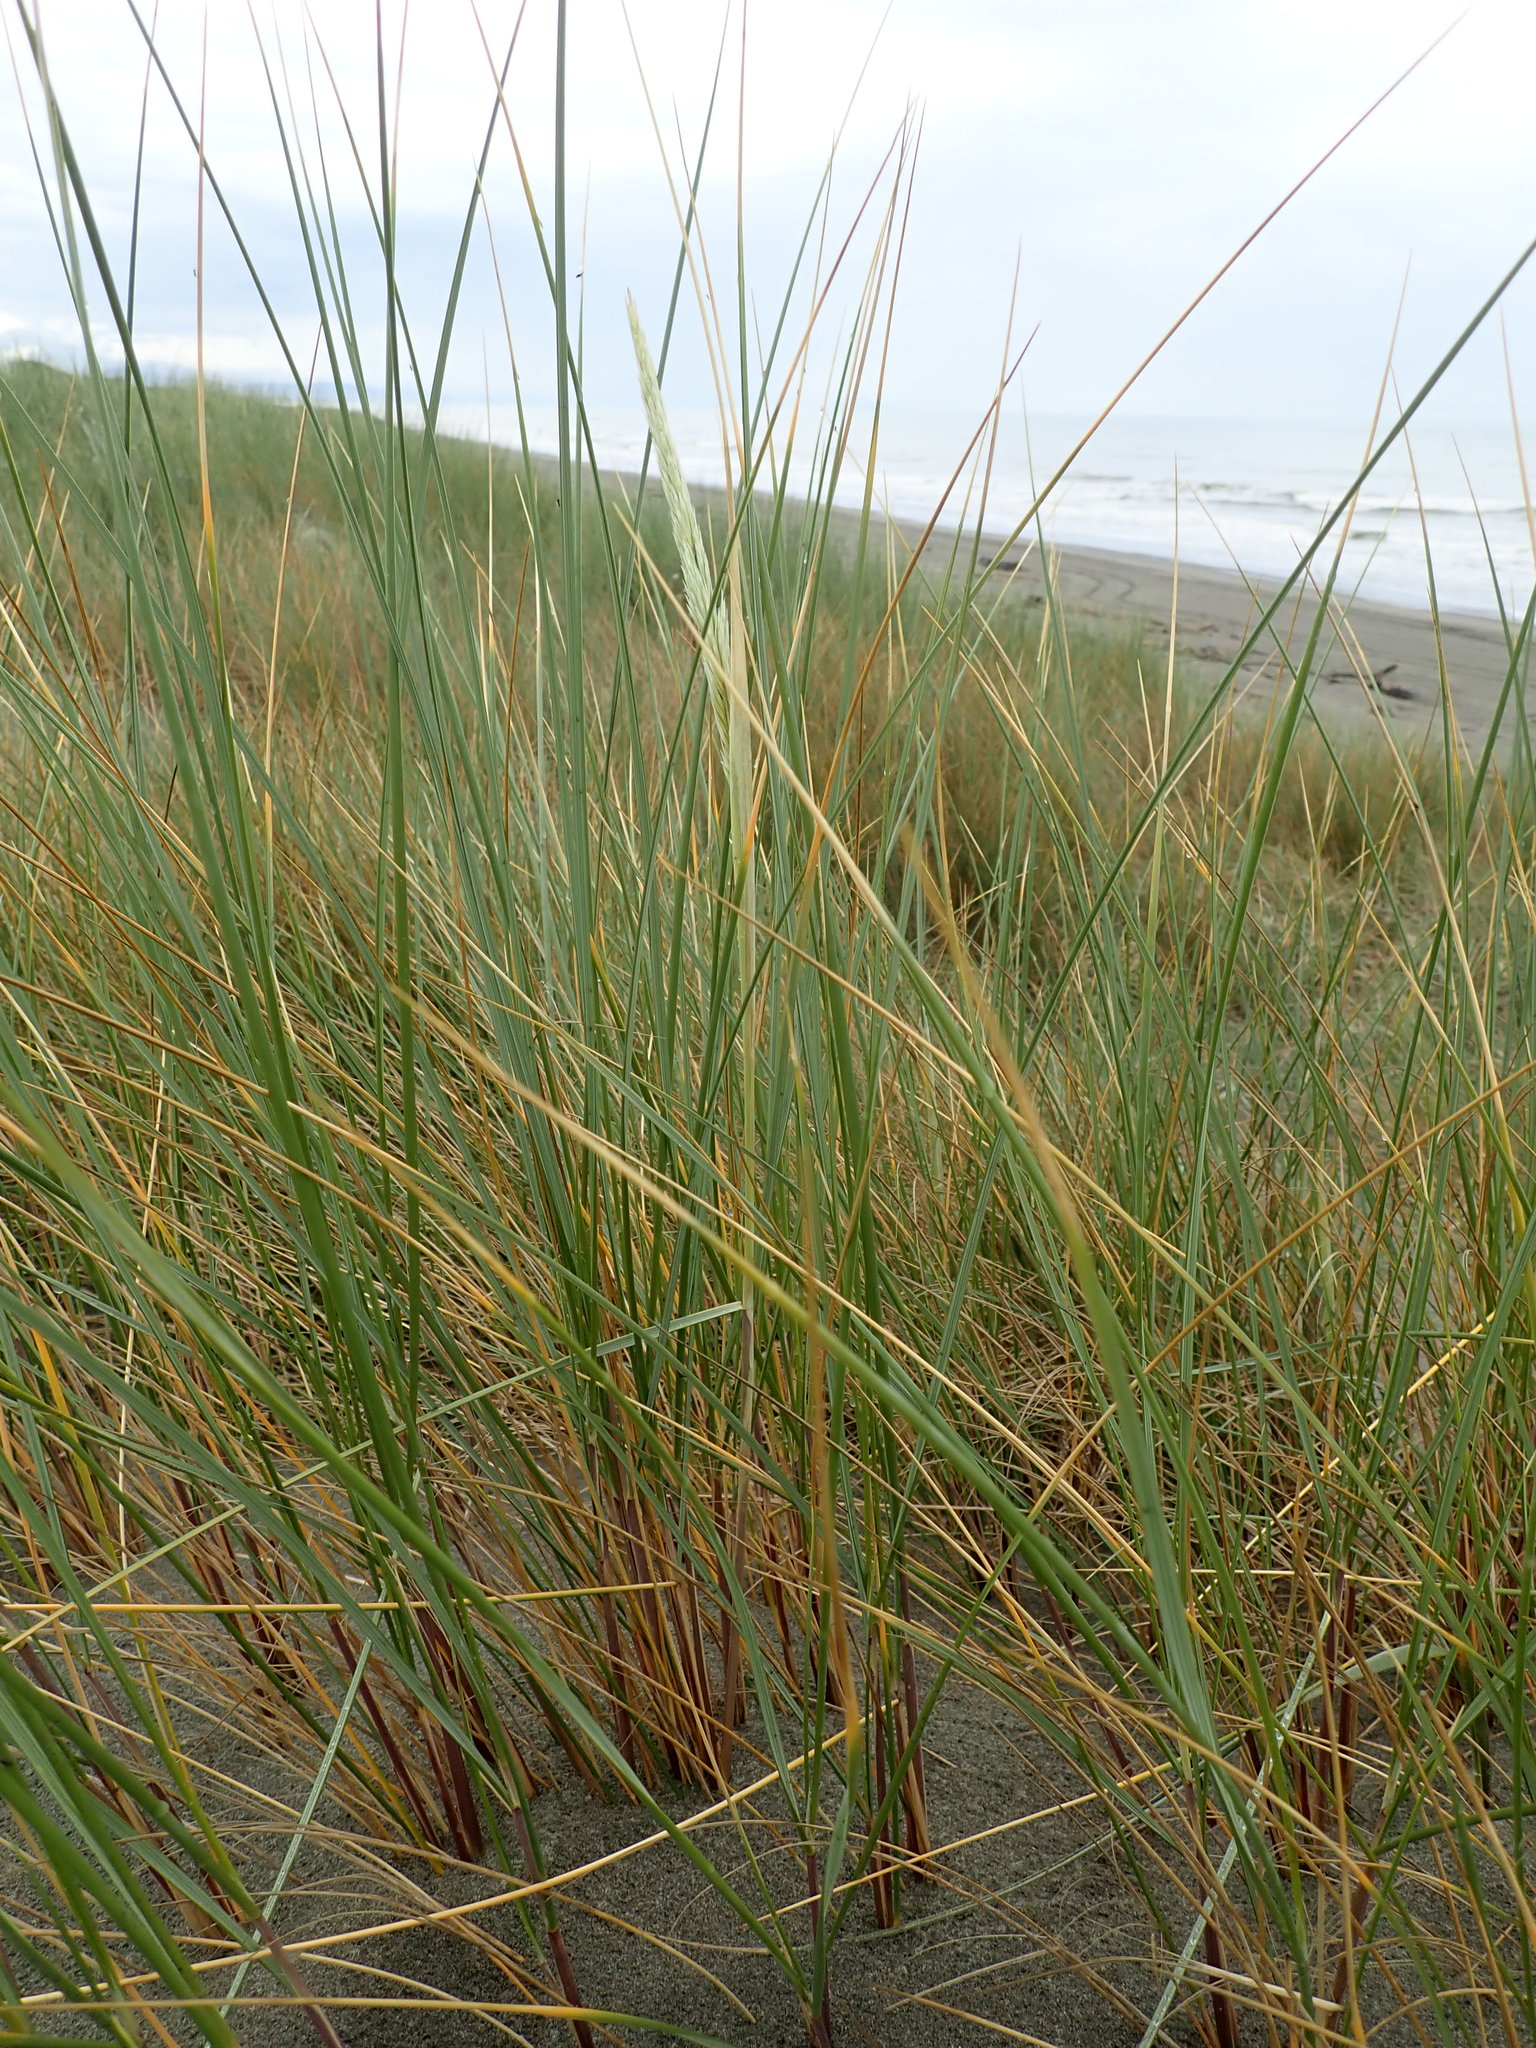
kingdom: Plantae
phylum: Tracheophyta
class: Liliopsida
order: Poales
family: Poaceae
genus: Calamagrostis
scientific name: Calamagrostis arenaria
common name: European beachgrass
